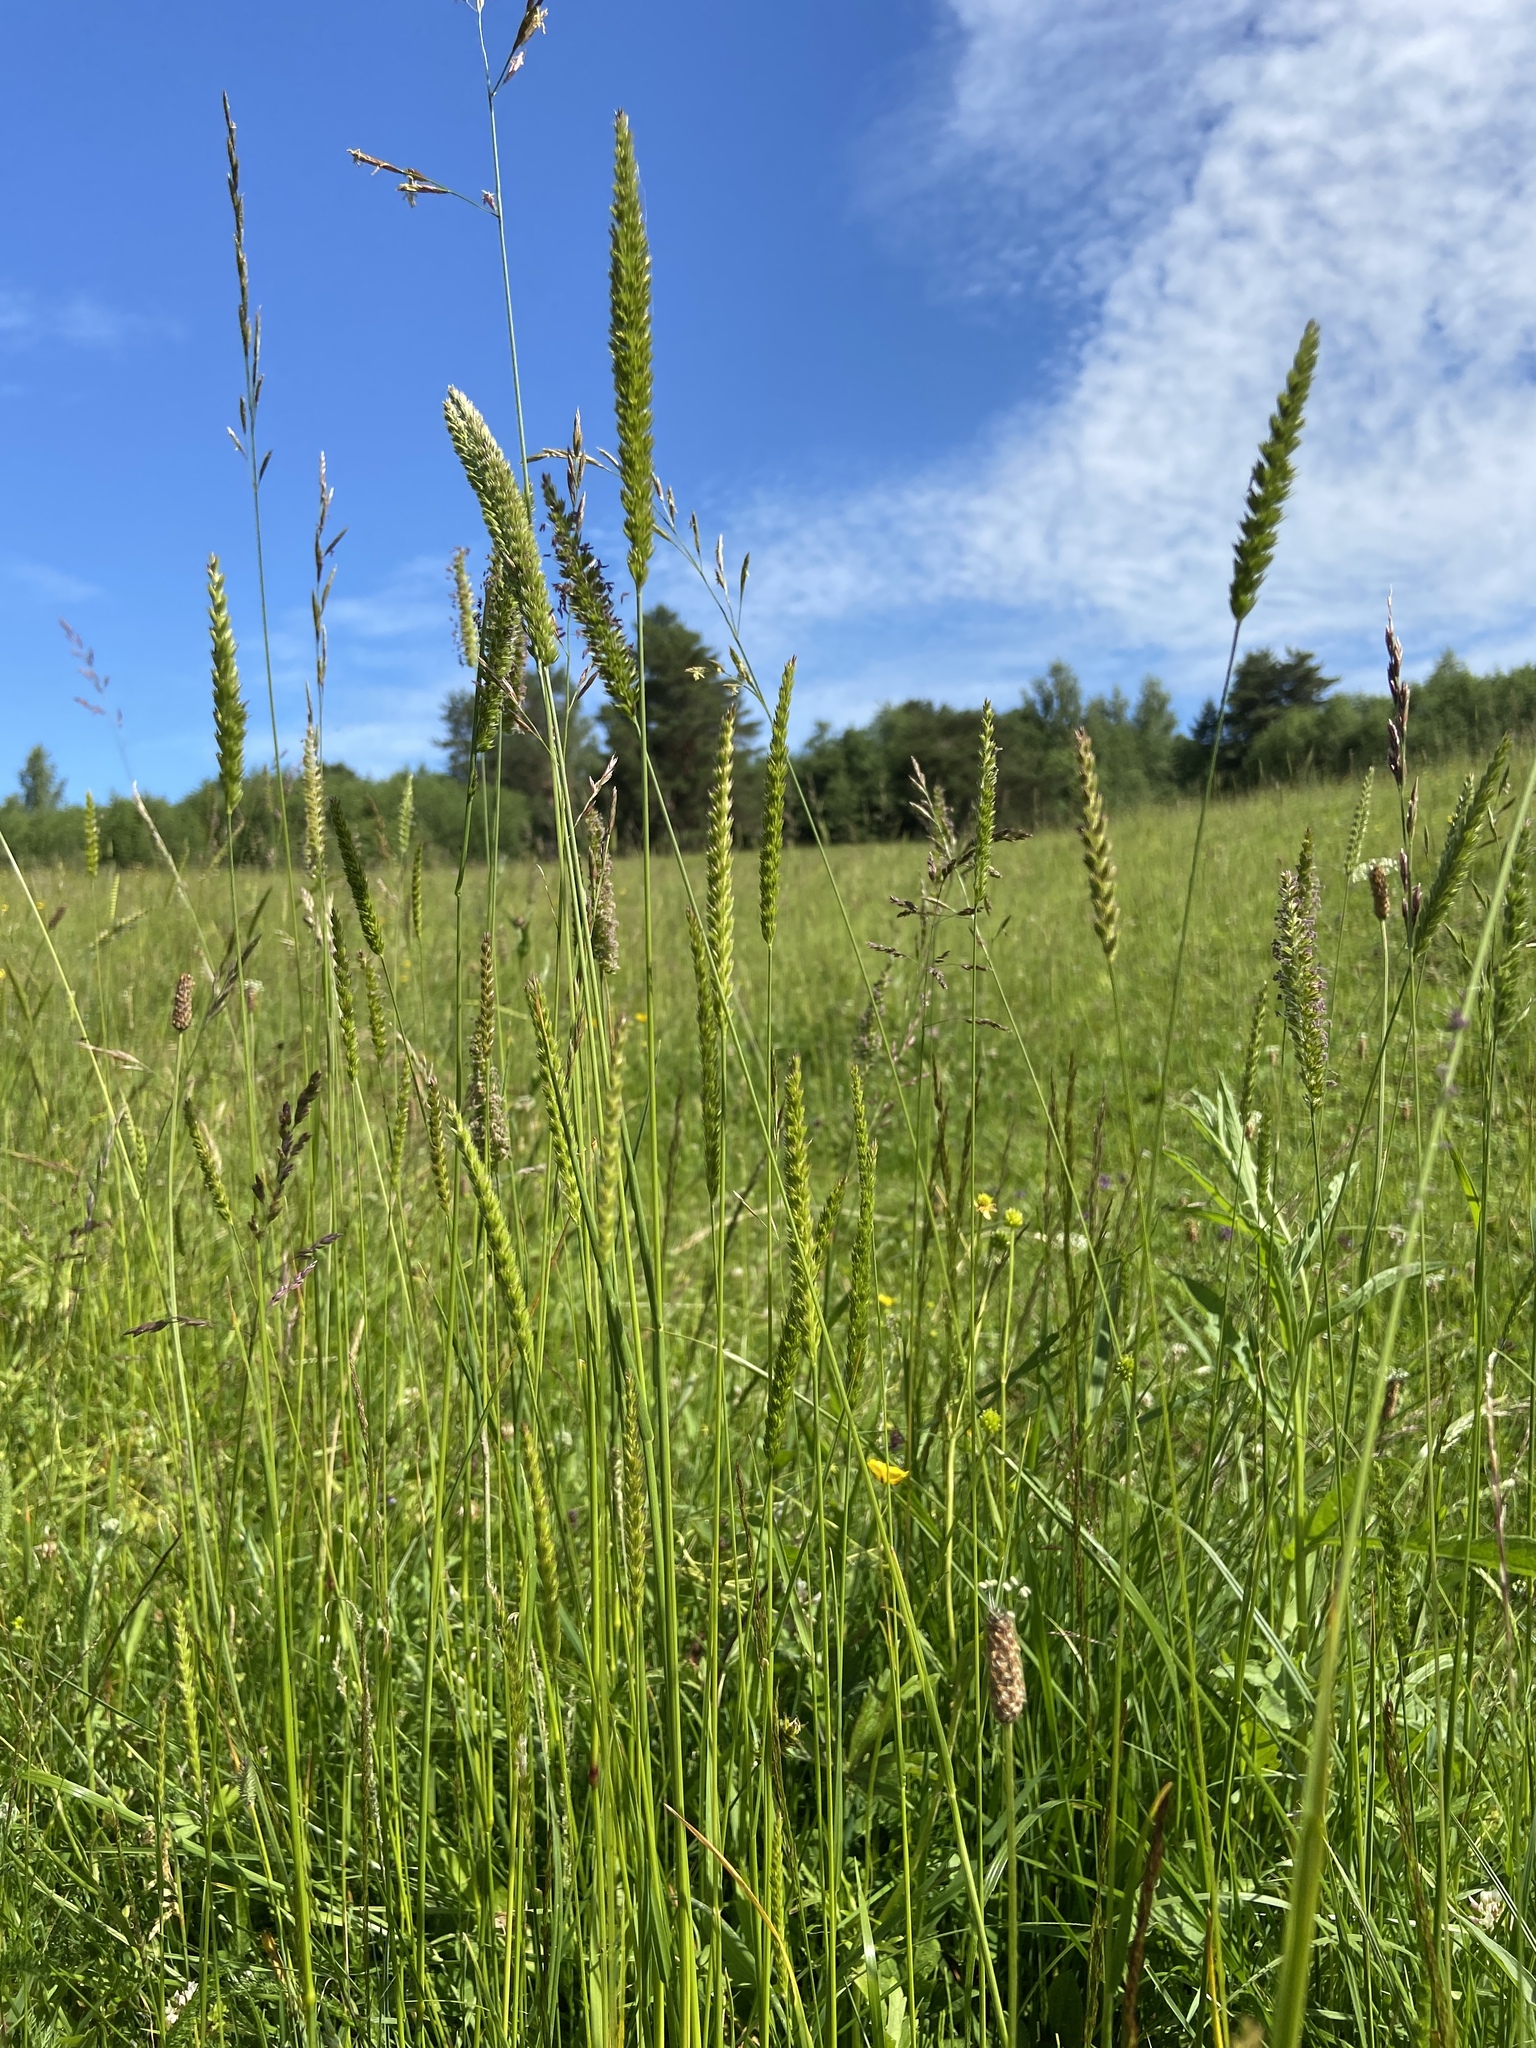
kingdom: Plantae
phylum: Tracheophyta
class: Liliopsida
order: Poales
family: Poaceae
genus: Cynosurus
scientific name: Cynosurus cristatus
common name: Crested dog's-tail
